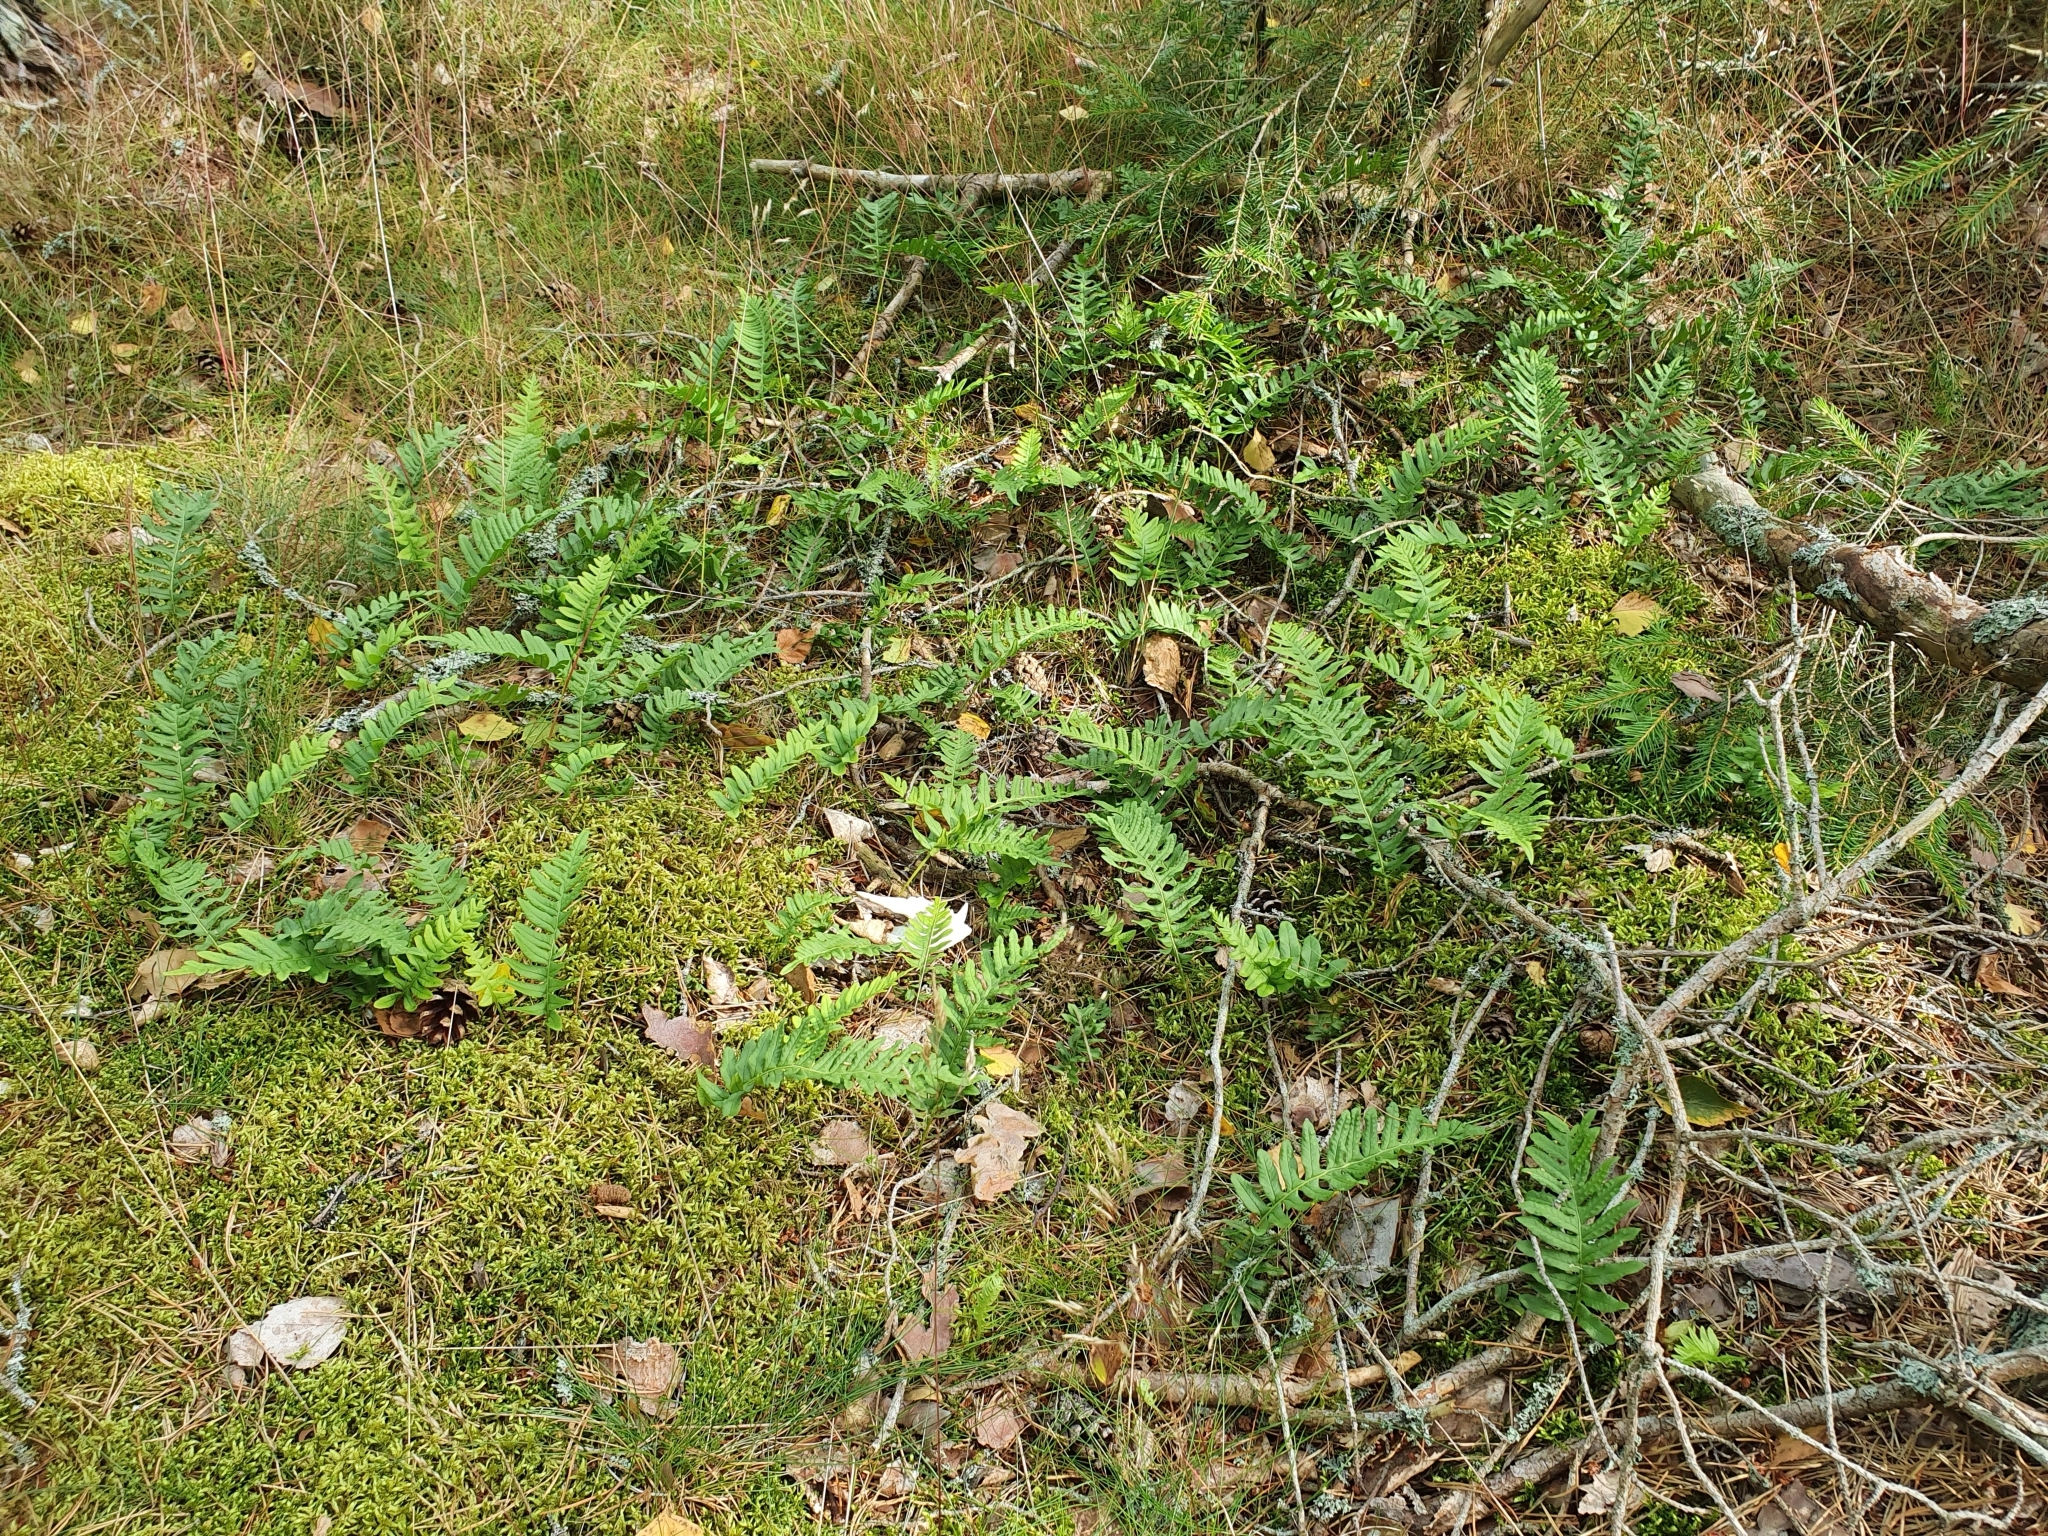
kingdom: Plantae
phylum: Tracheophyta
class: Polypodiopsida
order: Polypodiales
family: Polypodiaceae
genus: Polypodium
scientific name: Polypodium vulgare
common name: Common polypody
